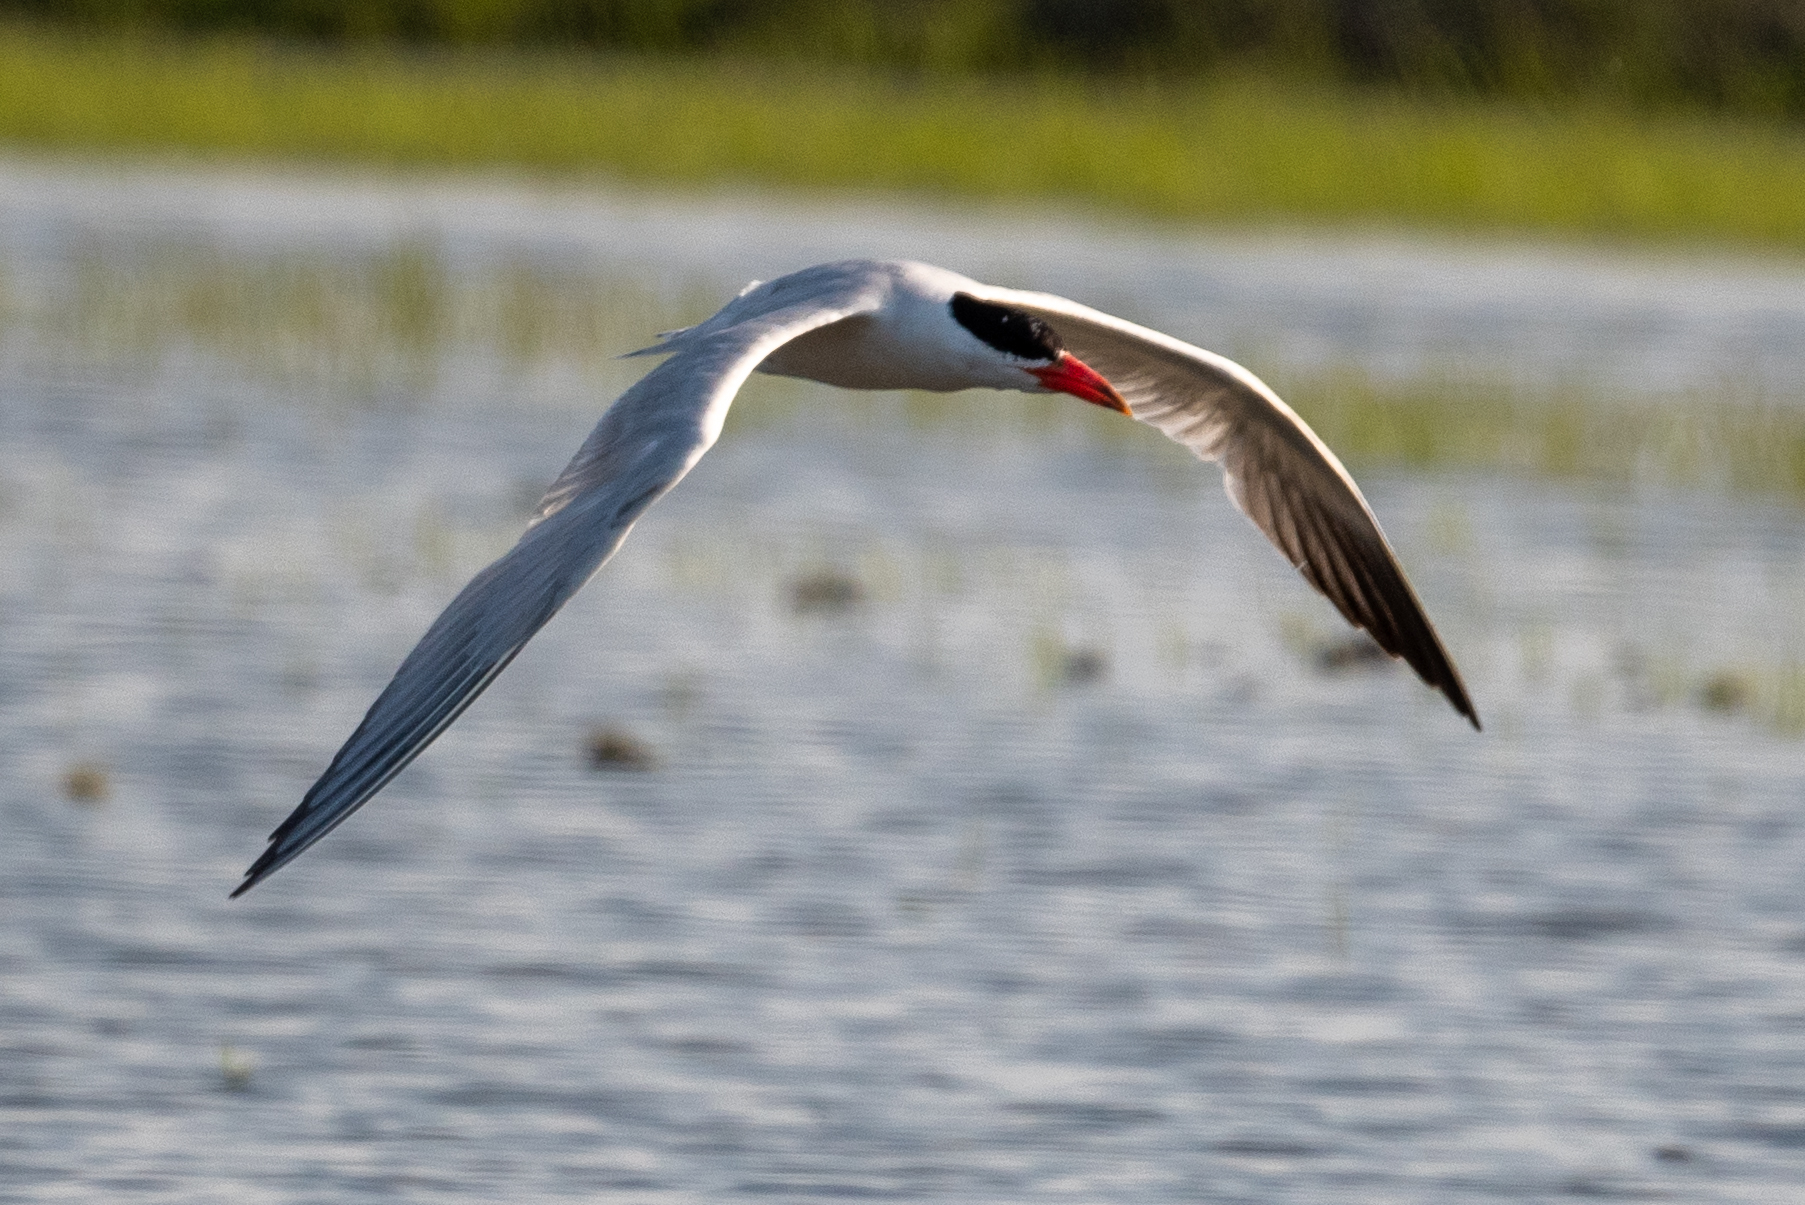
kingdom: Animalia
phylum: Chordata
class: Aves
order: Charadriiformes
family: Laridae
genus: Hydroprogne
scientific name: Hydroprogne caspia
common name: Caspian tern
